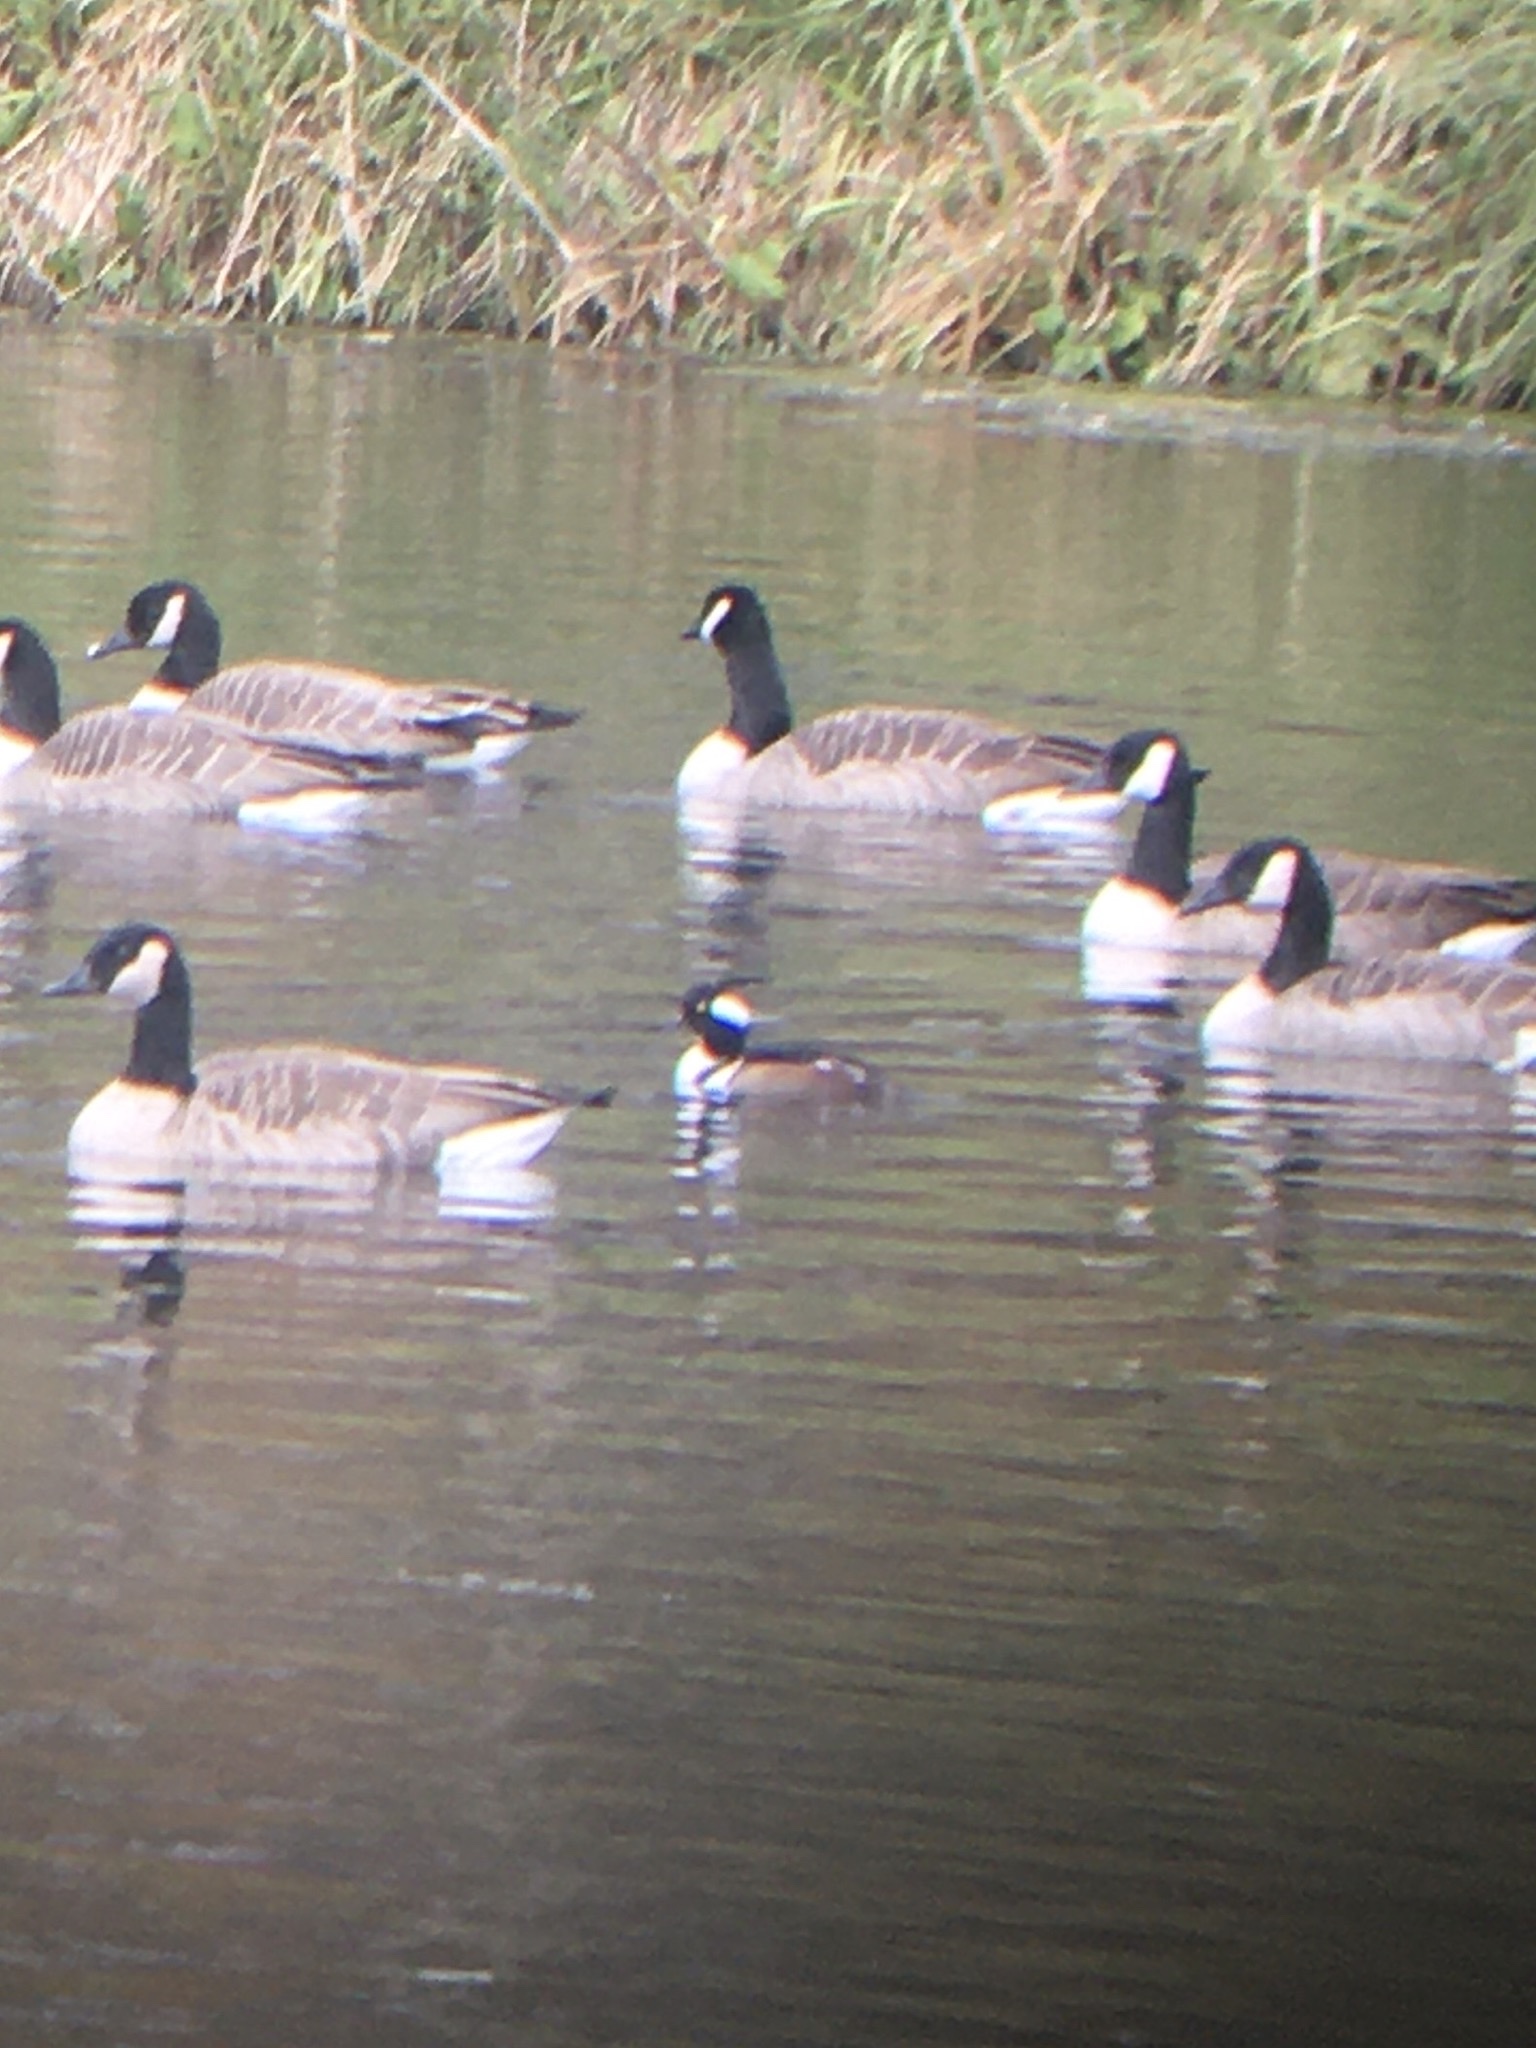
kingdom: Animalia
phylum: Chordata
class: Aves
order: Anseriformes
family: Anatidae
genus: Lophodytes
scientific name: Lophodytes cucullatus
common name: Hooded merganser
